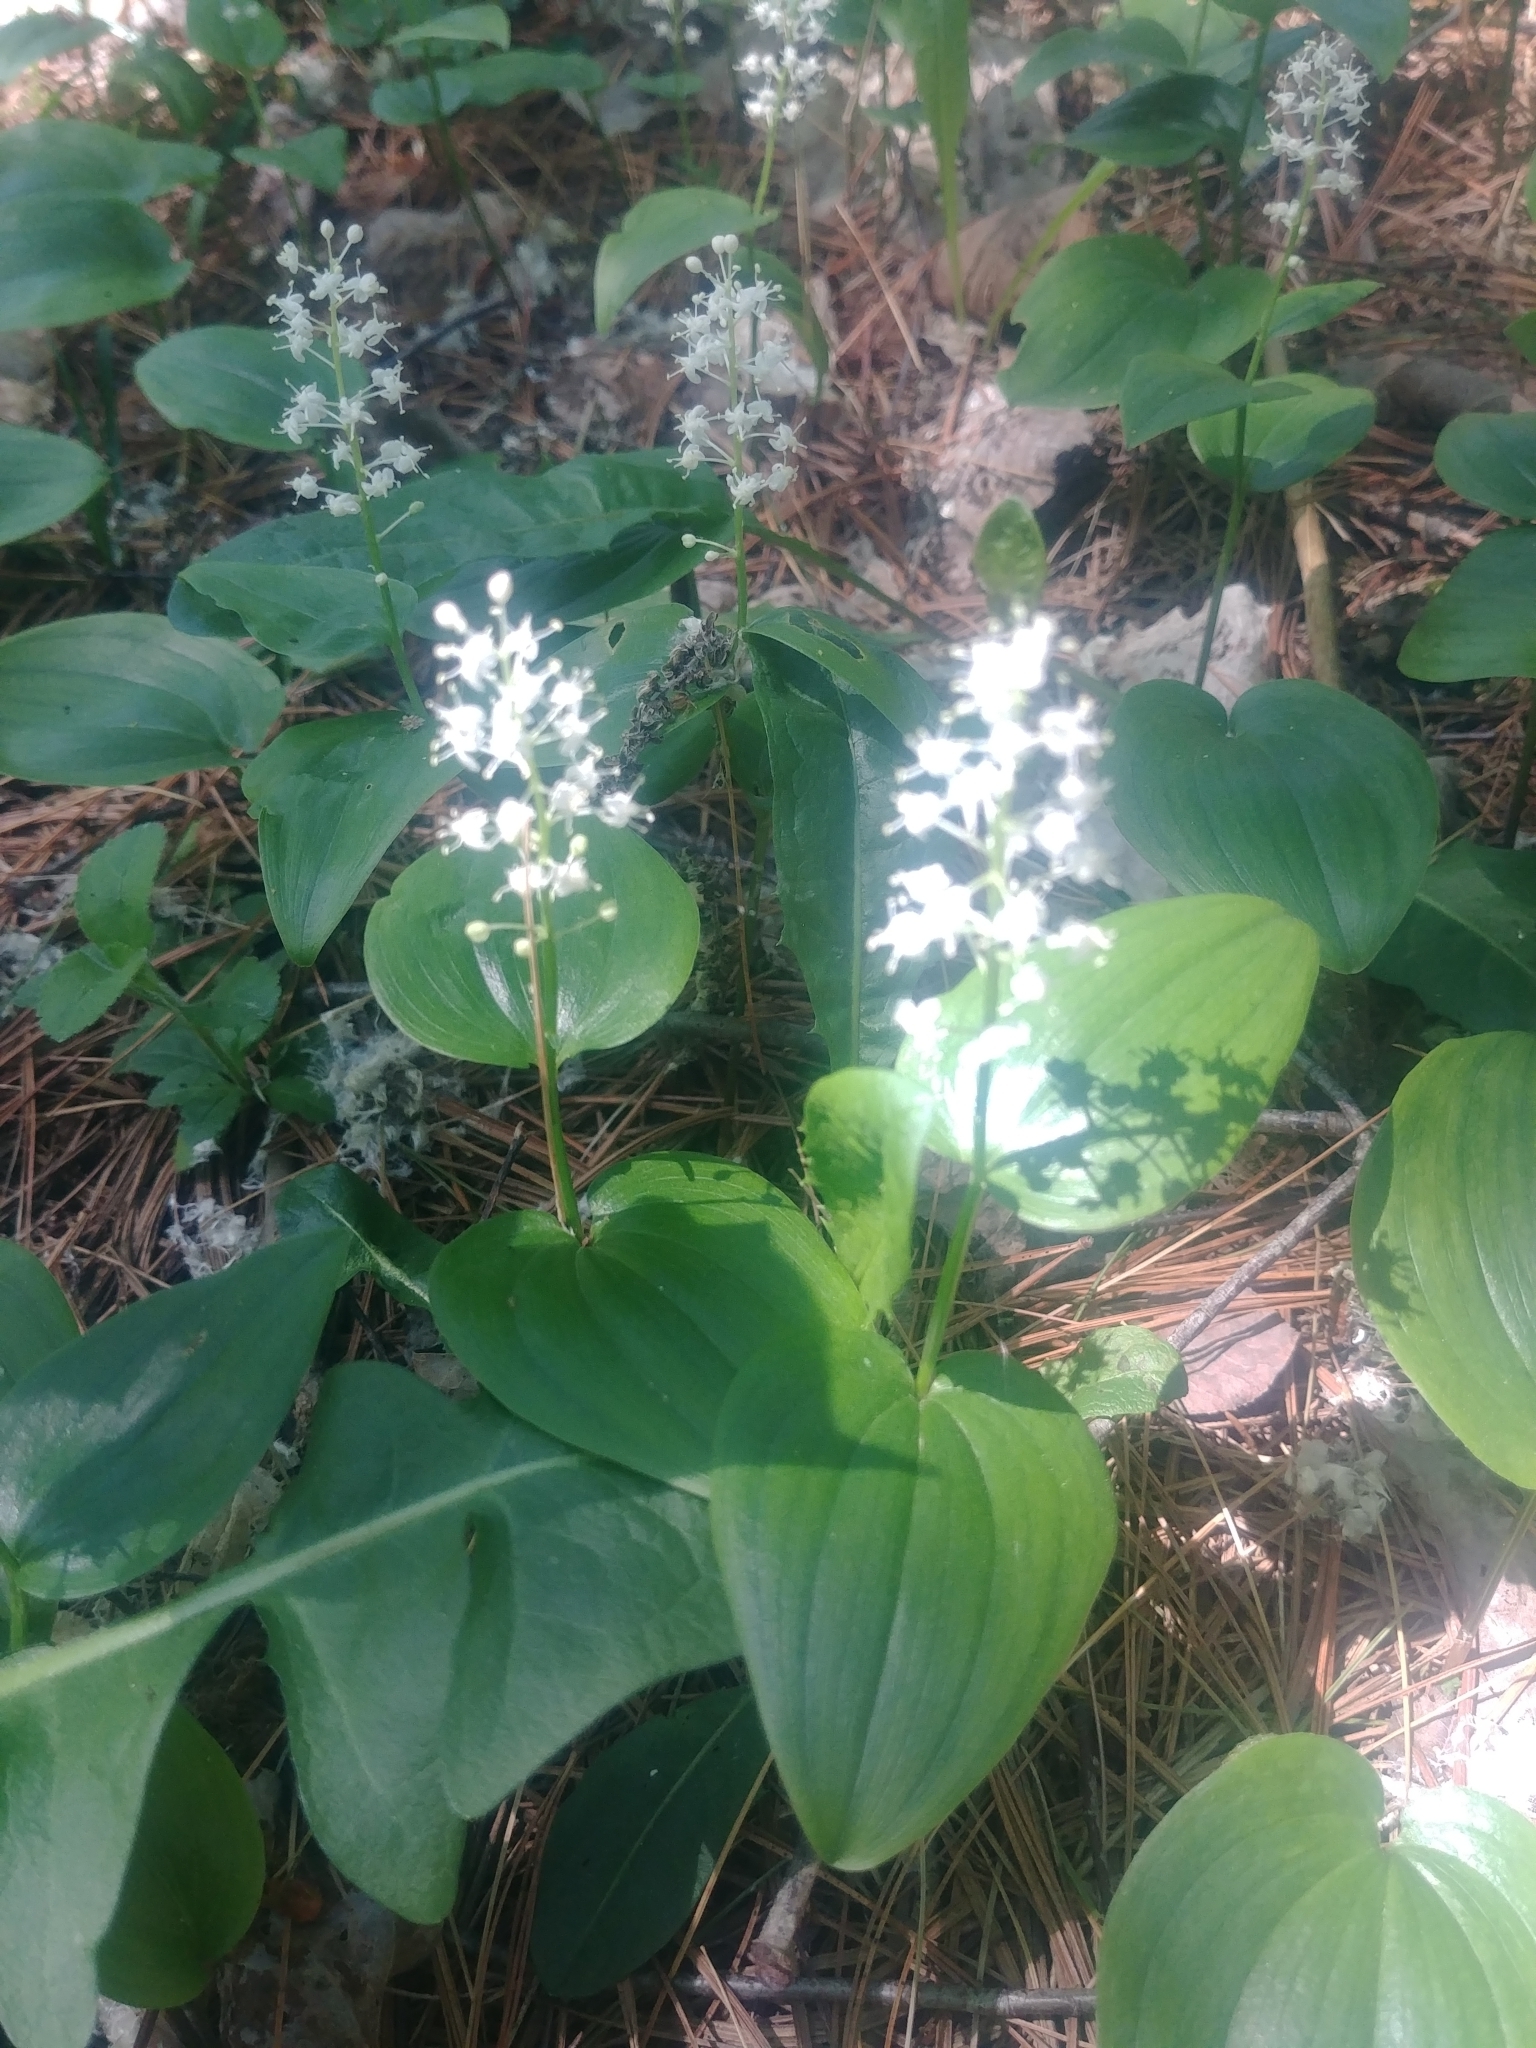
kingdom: Plantae
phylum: Tracheophyta
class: Liliopsida
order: Asparagales
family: Asparagaceae
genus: Maianthemum
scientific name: Maianthemum canadense
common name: False lily-of-the-valley
